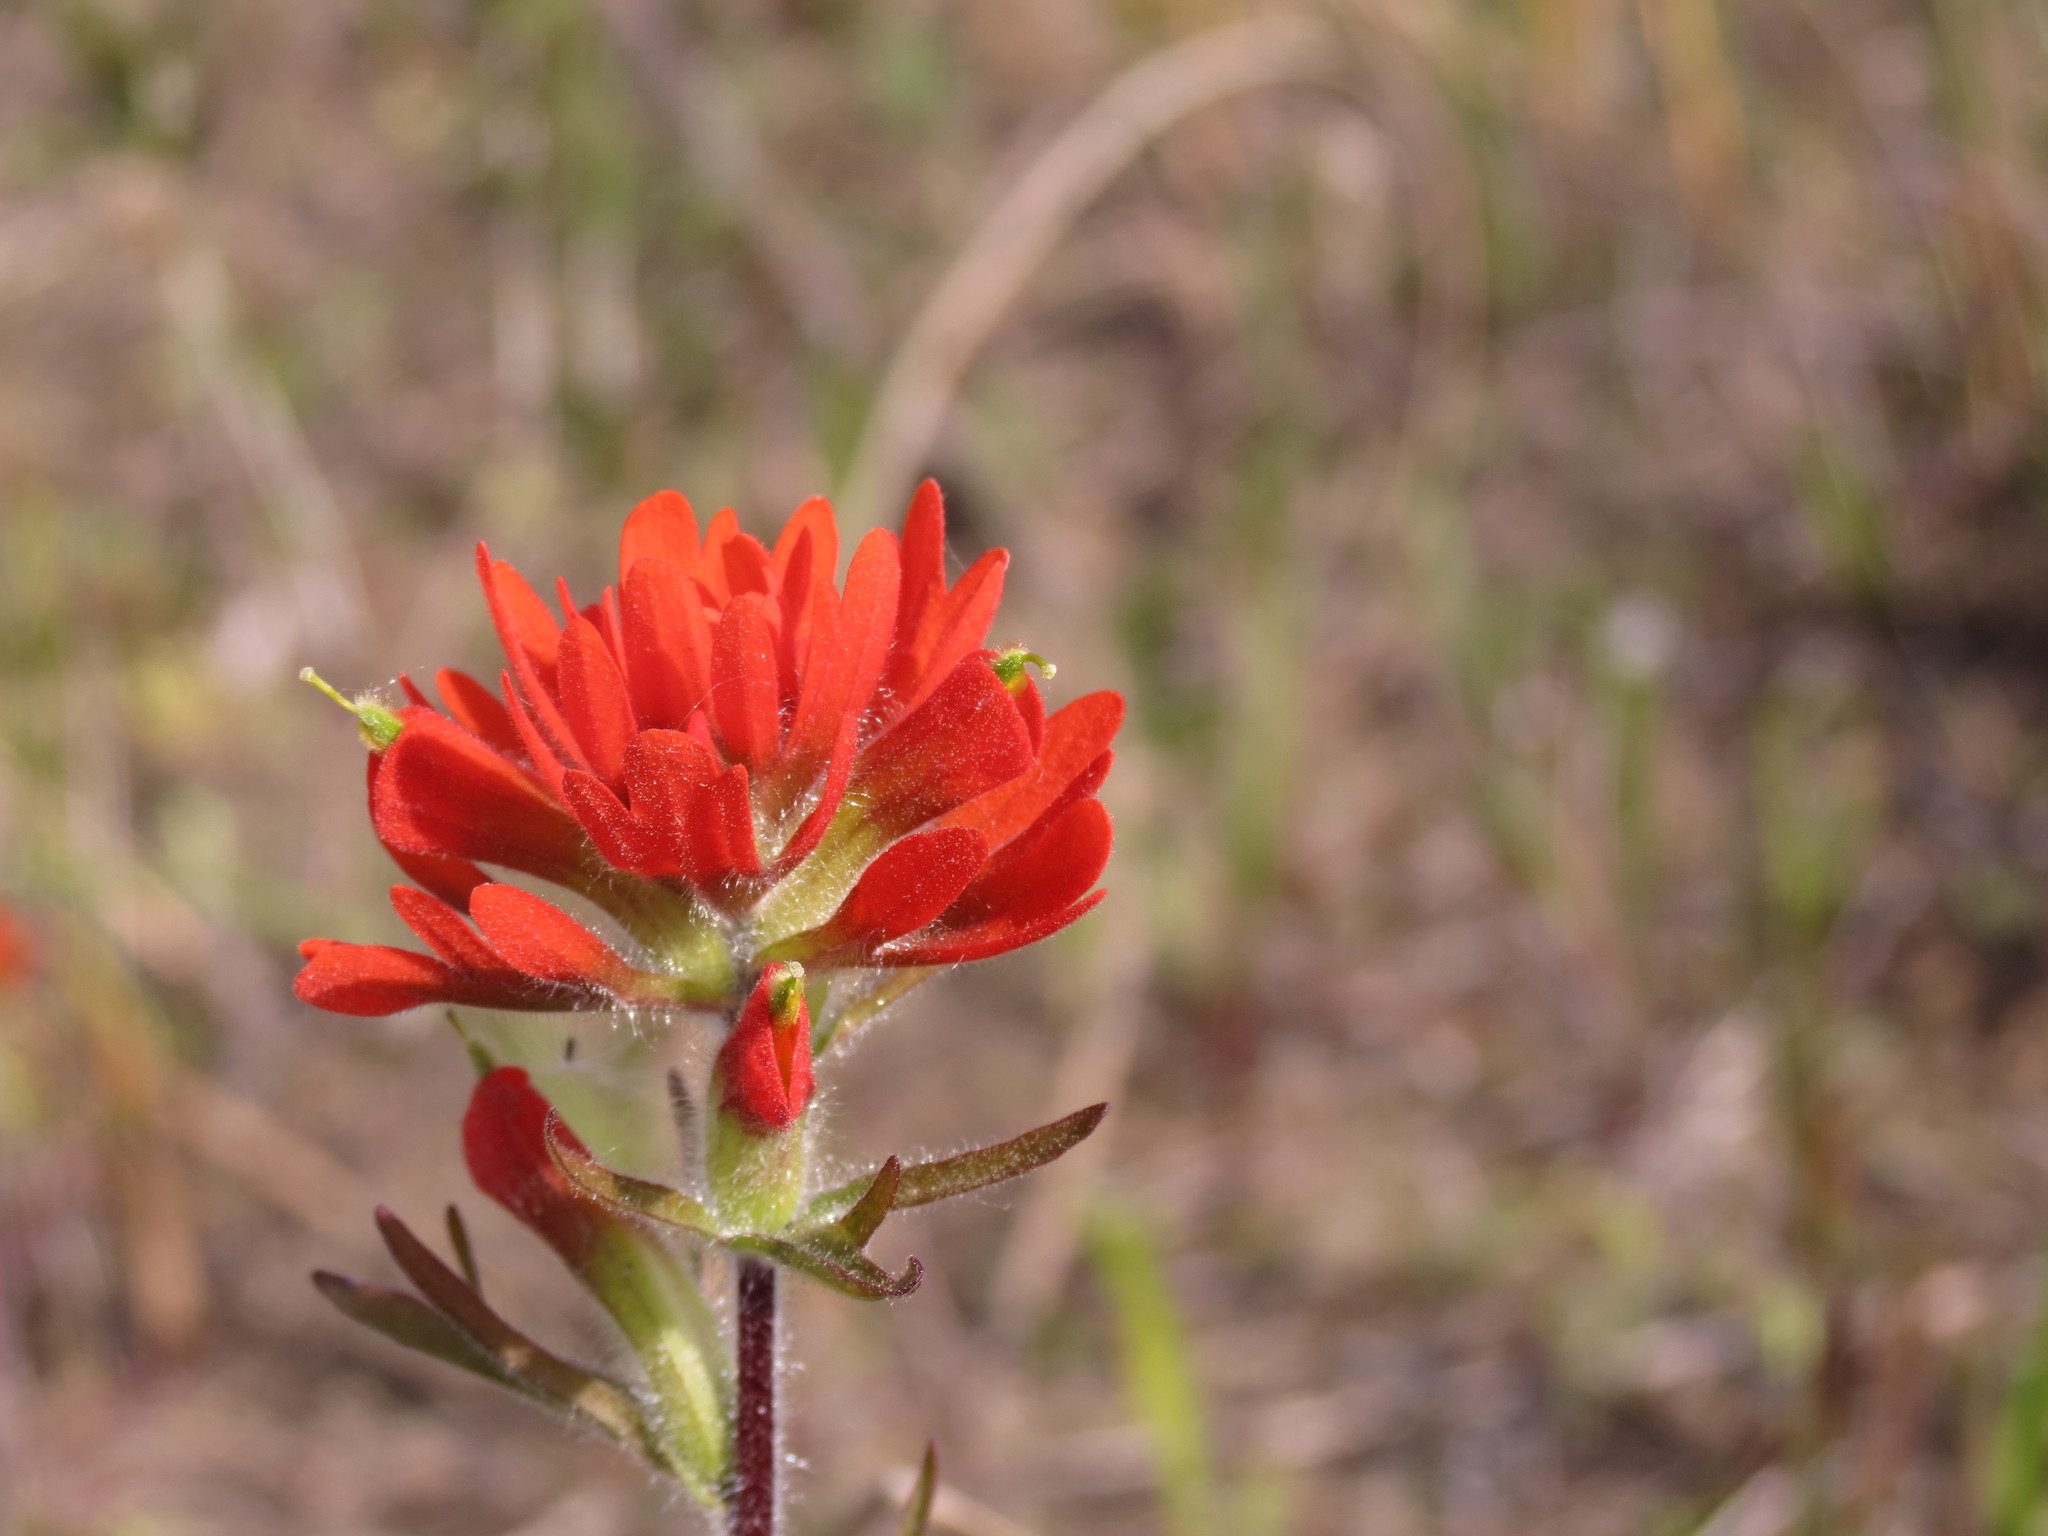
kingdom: Plantae
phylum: Tracheophyta
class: Magnoliopsida
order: Lamiales
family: Orobanchaceae
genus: Castilleja
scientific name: Castilleja coccinea
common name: Scarlet paintbrush
